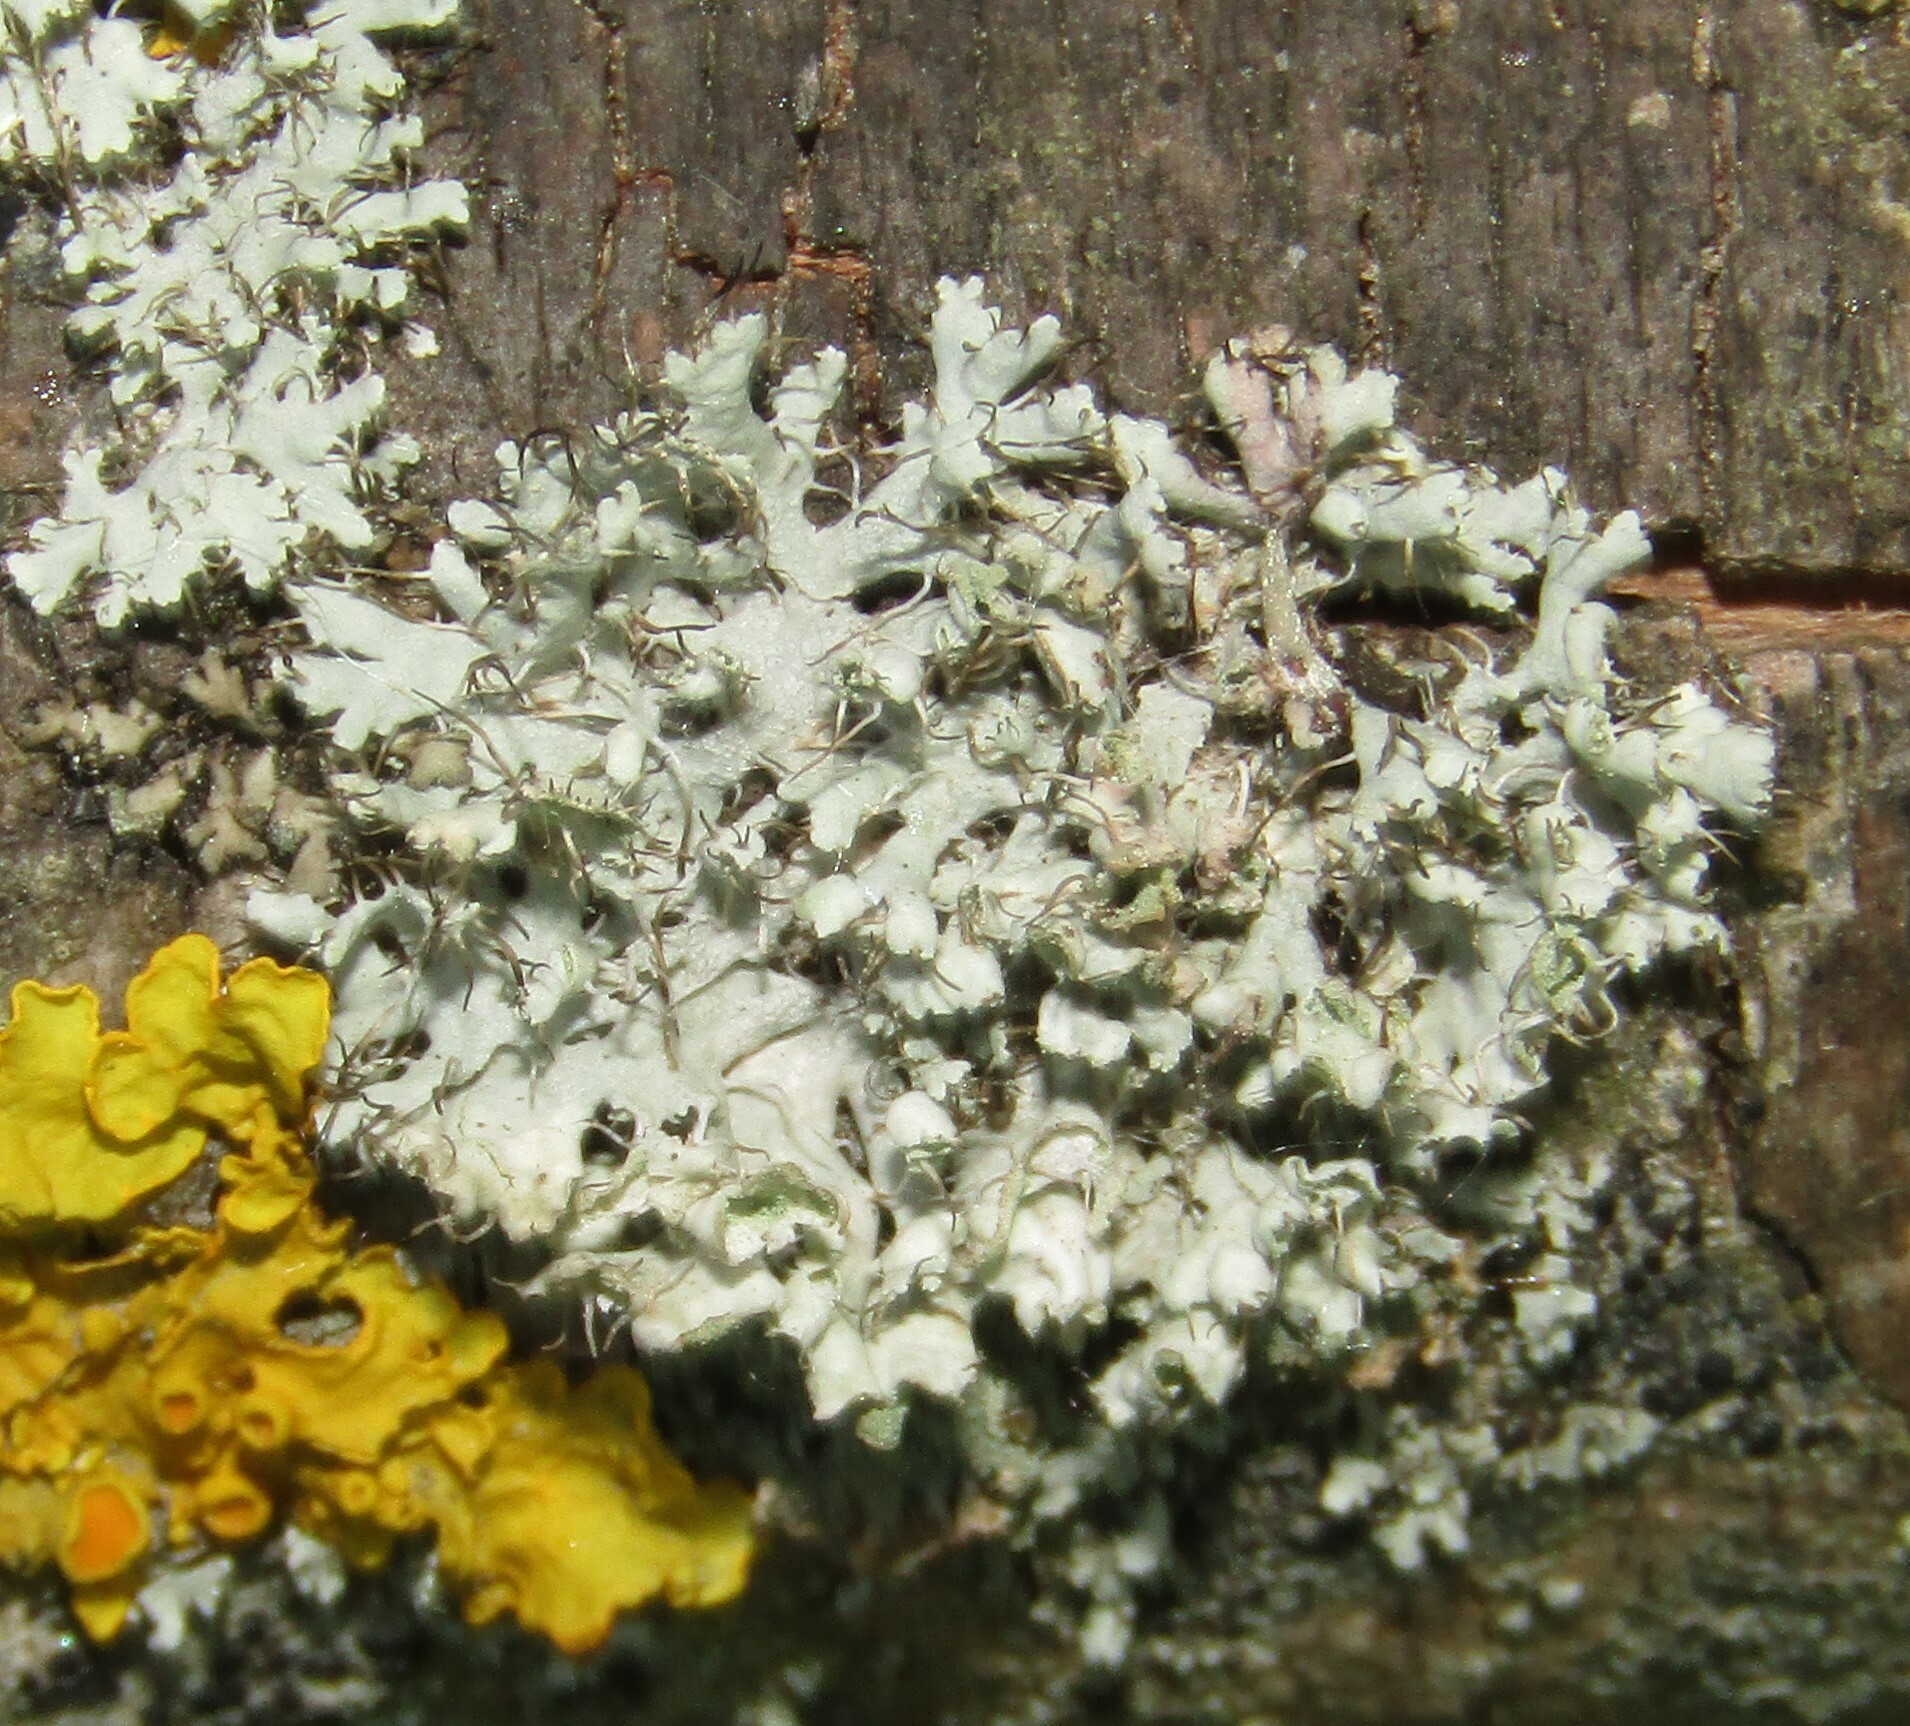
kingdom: Fungi
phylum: Ascomycota
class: Lecanoromycetes
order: Caliciales
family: Physciaceae
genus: Physcia
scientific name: Physcia adscendens
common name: Hooded rosette lichen
